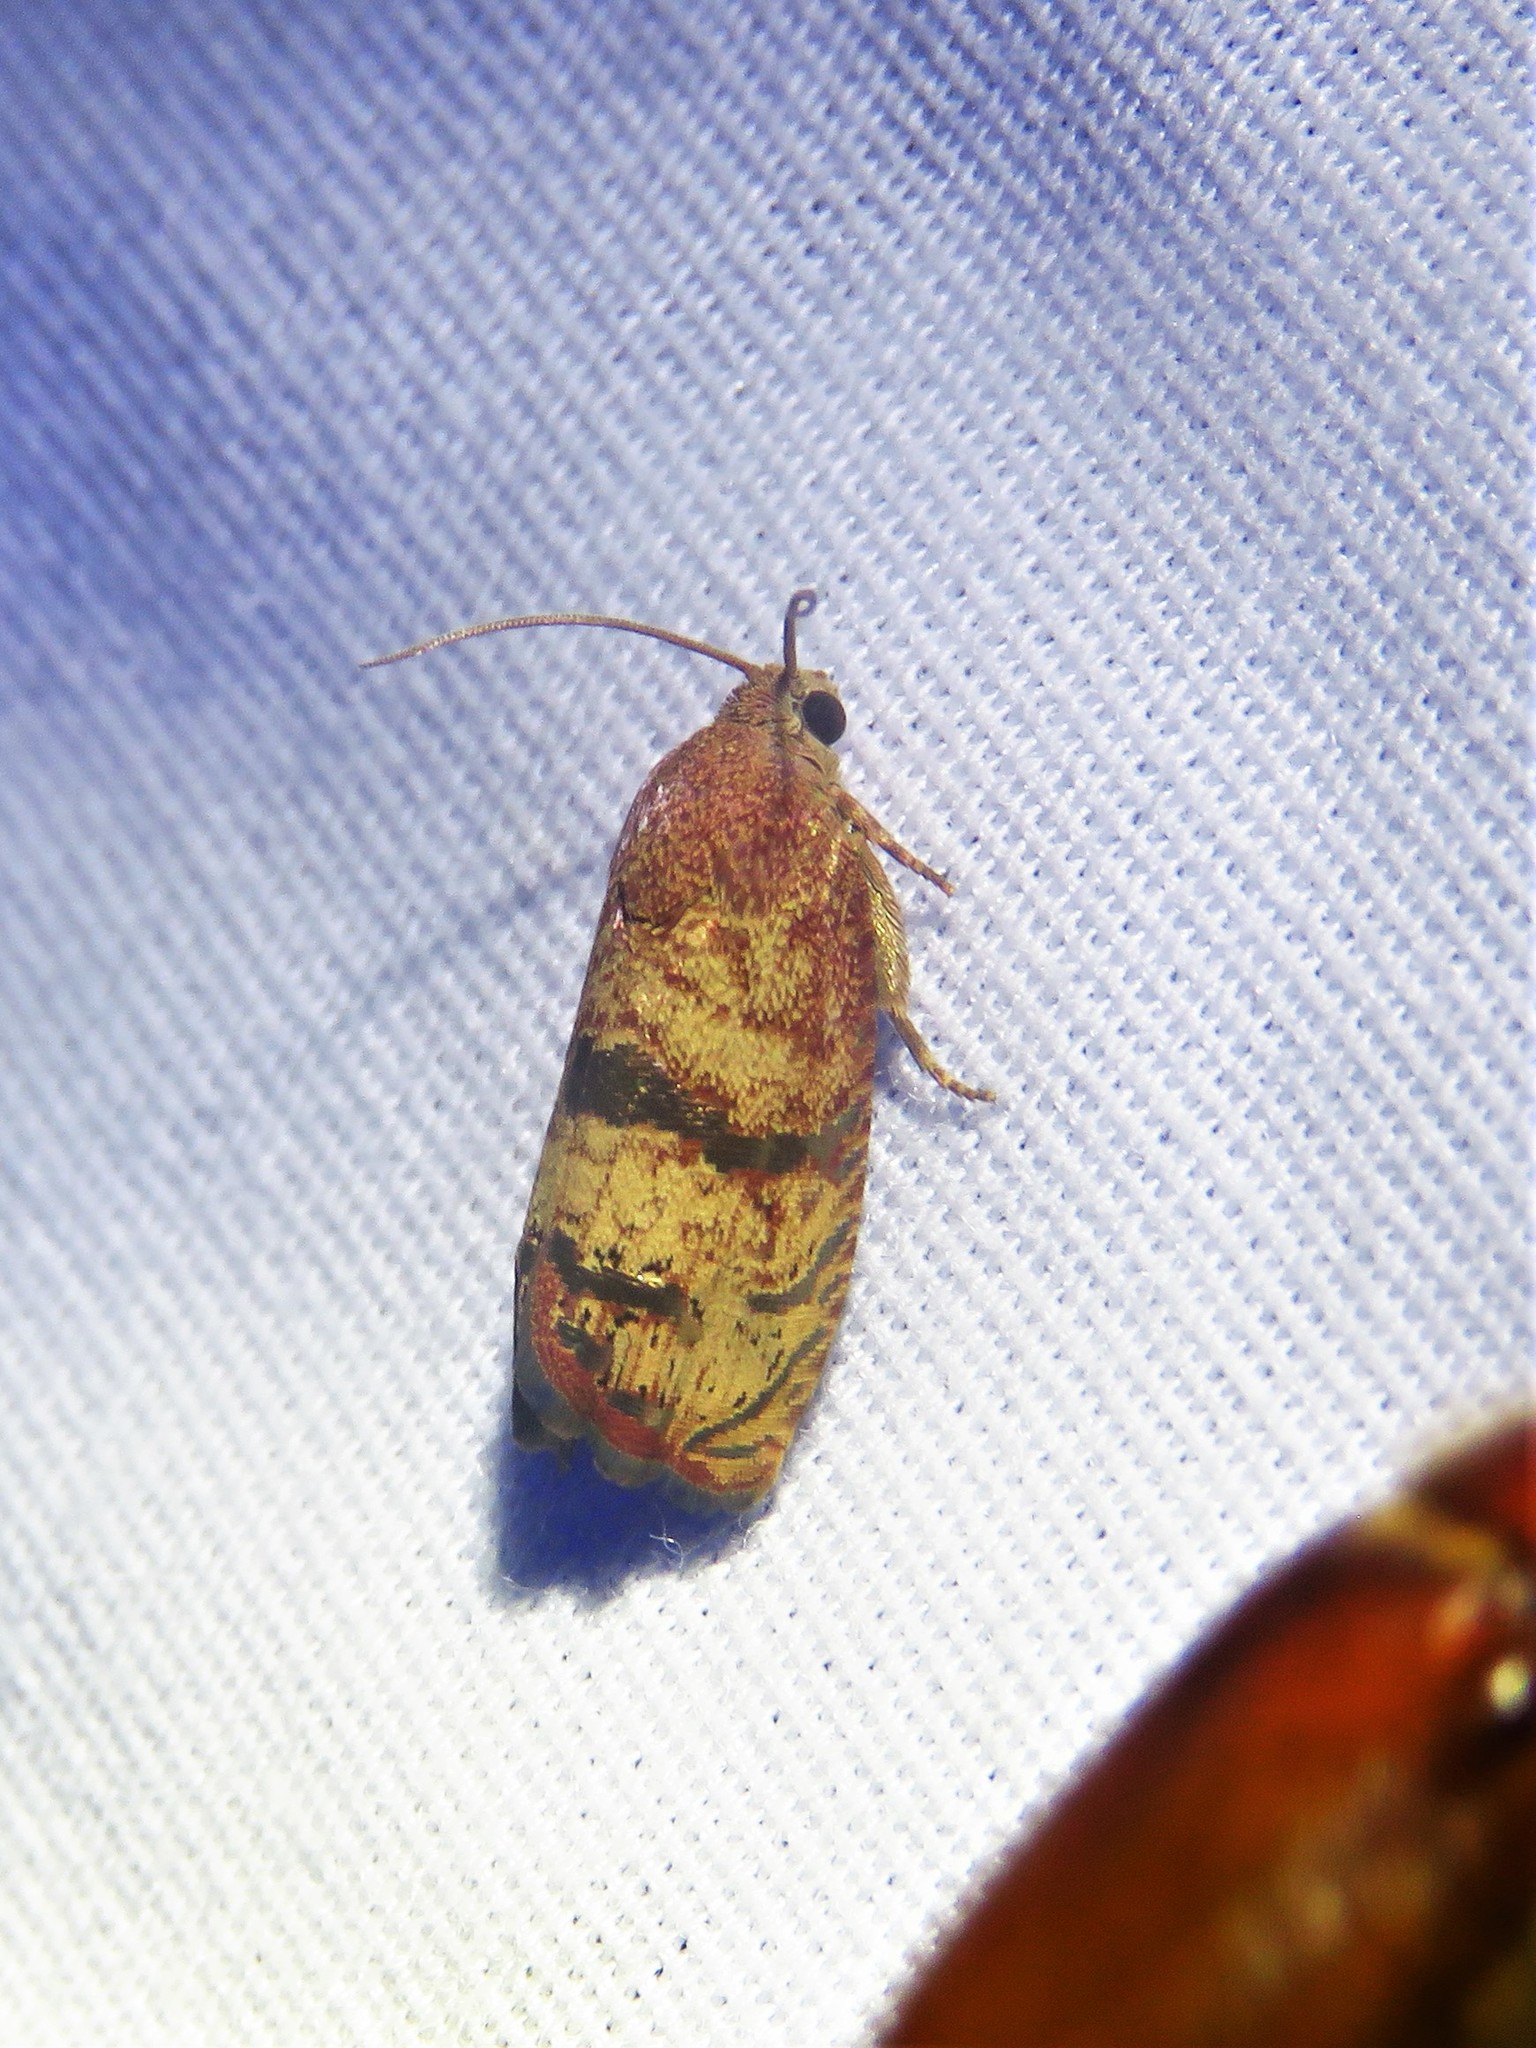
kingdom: Animalia
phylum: Arthropoda
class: Insecta
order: Lepidoptera
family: Tortricidae
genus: Cydia
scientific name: Cydia latiferreana
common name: Filbertworm moth
